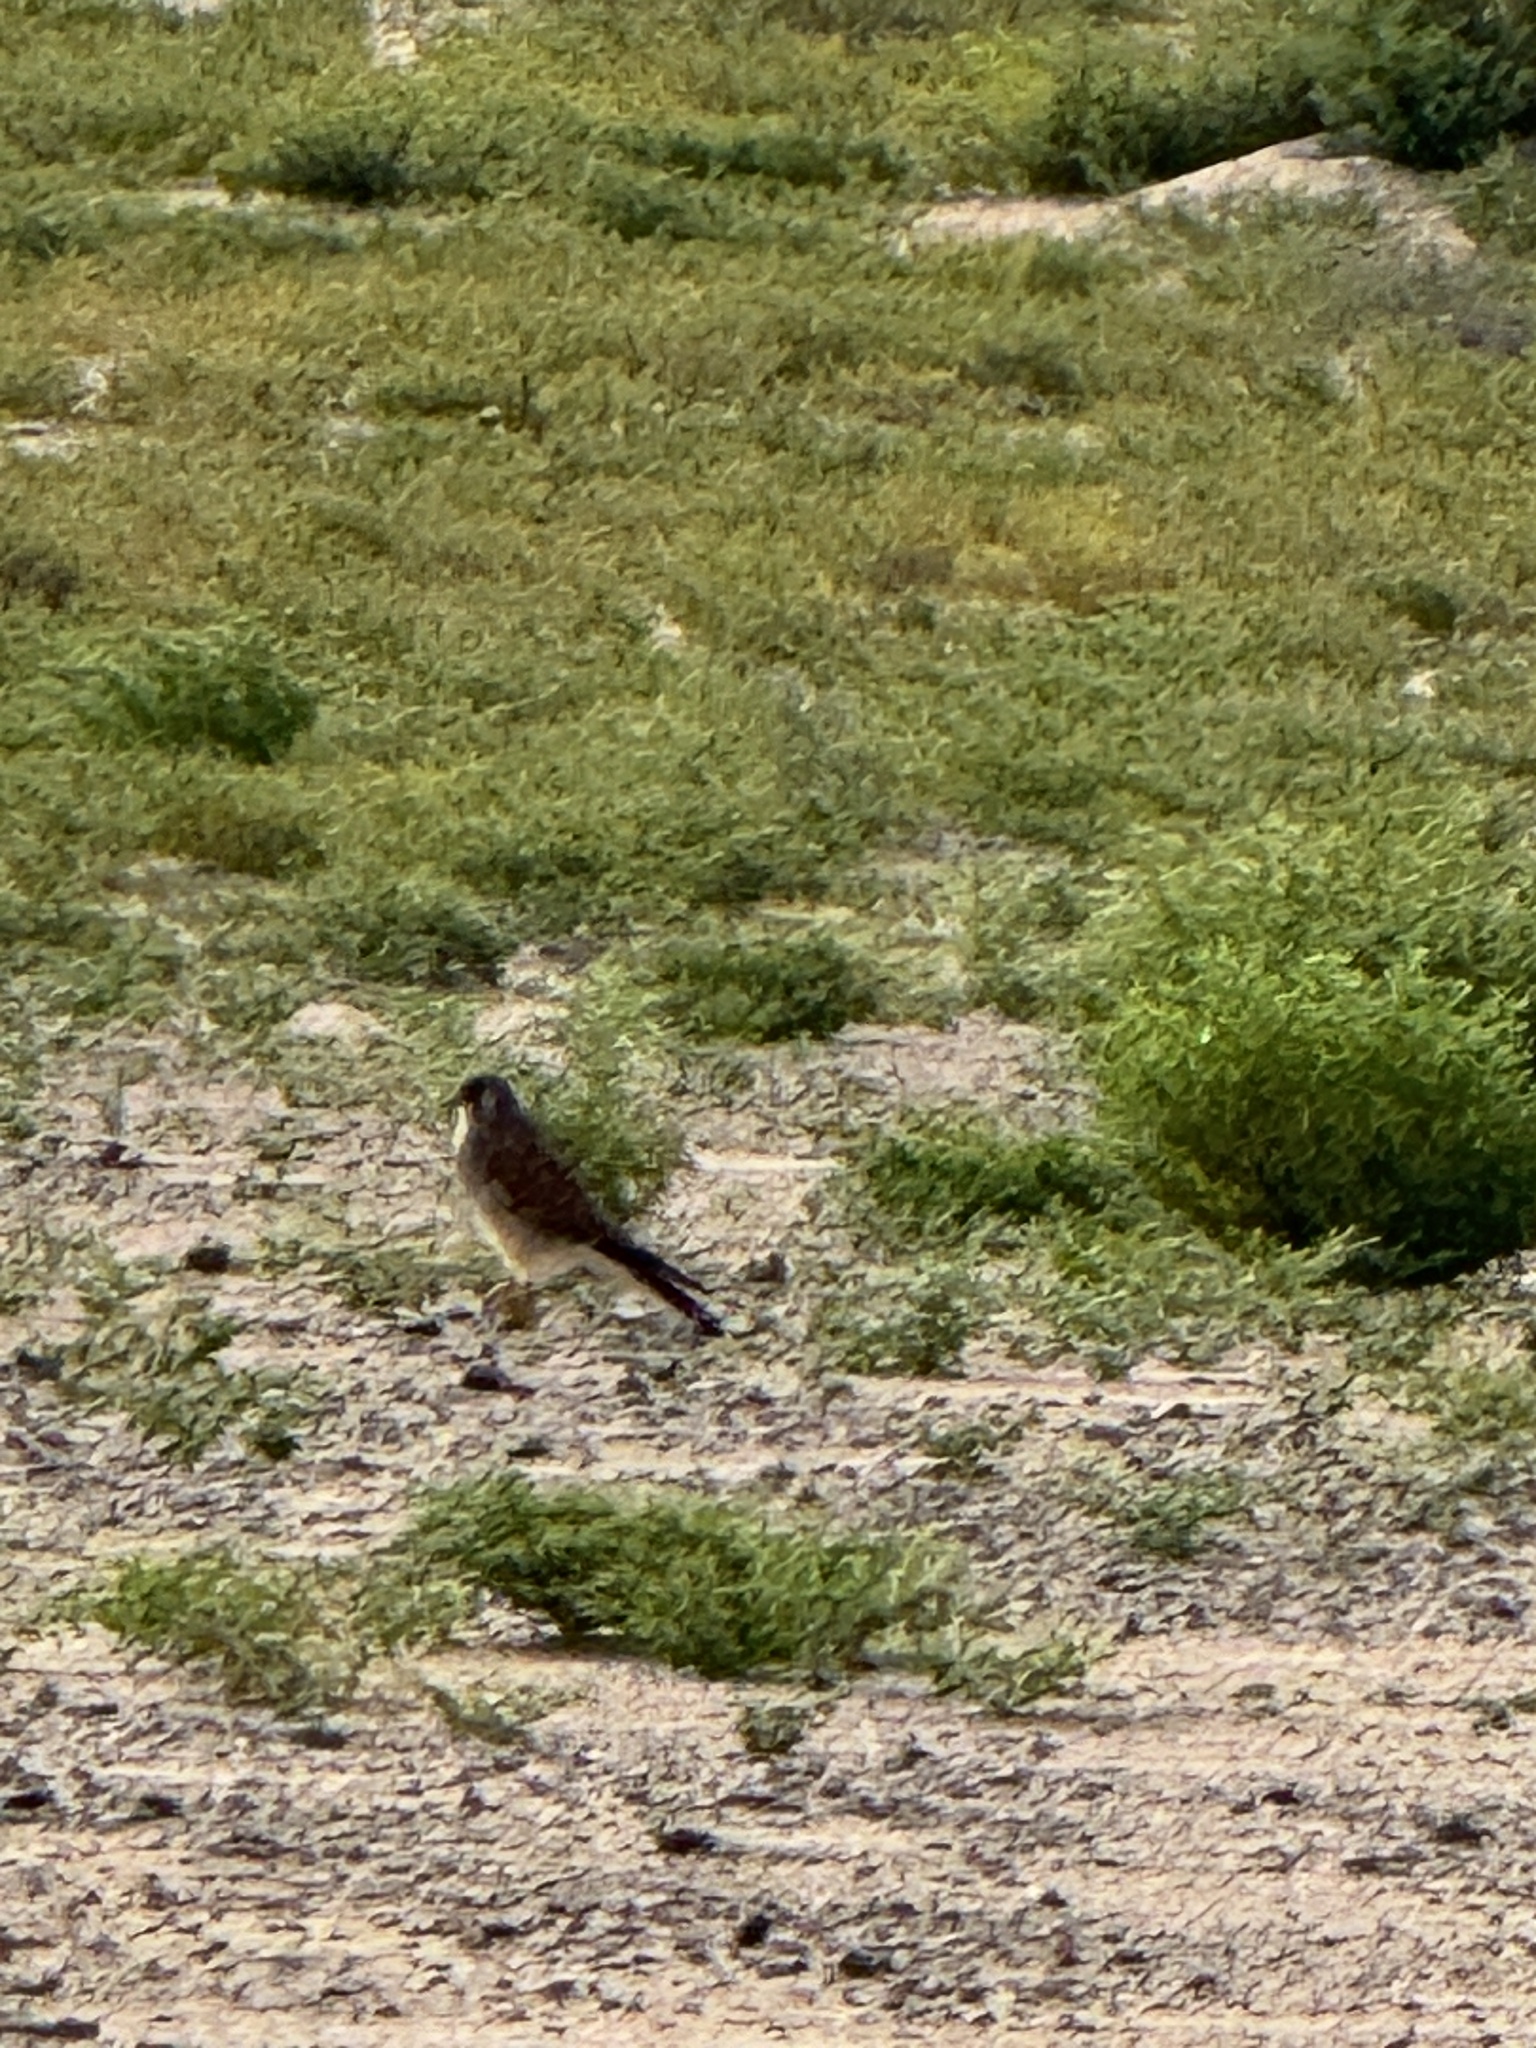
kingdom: Animalia
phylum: Chordata
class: Aves
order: Falconiformes
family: Falconidae
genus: Falco
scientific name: Falco naumanni
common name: Lesser kestrel
